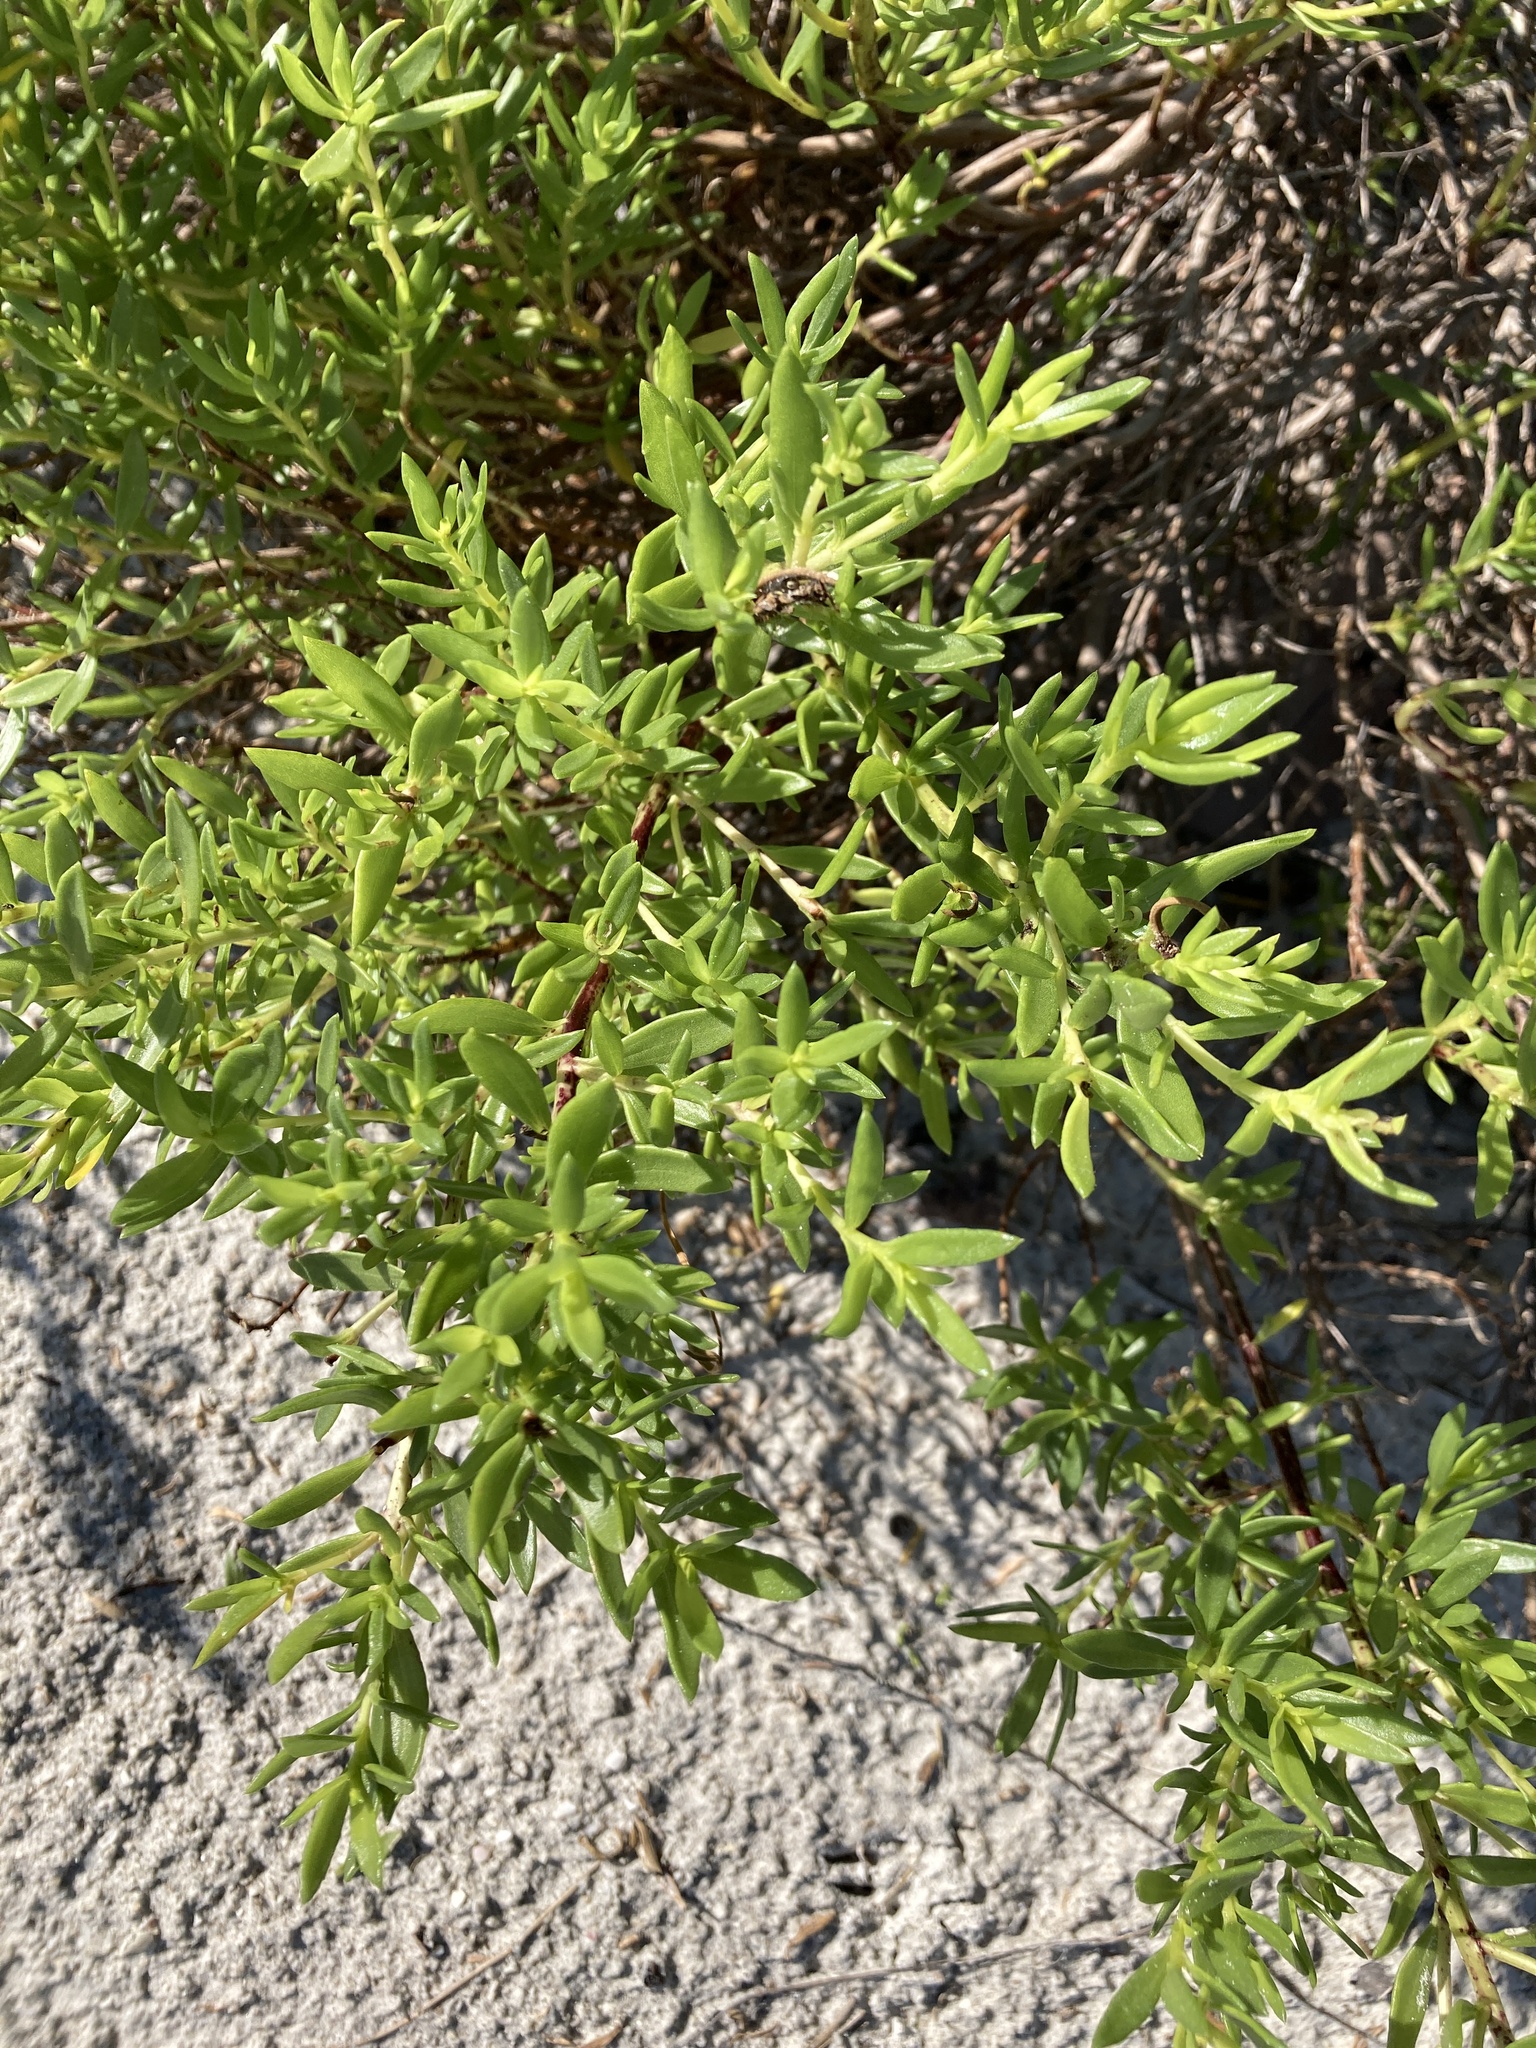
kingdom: Plantae
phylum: Tracheophyta
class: Magnoliopsida
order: Asterales
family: Asteraceae
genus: Iva
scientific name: Iva imbricata
